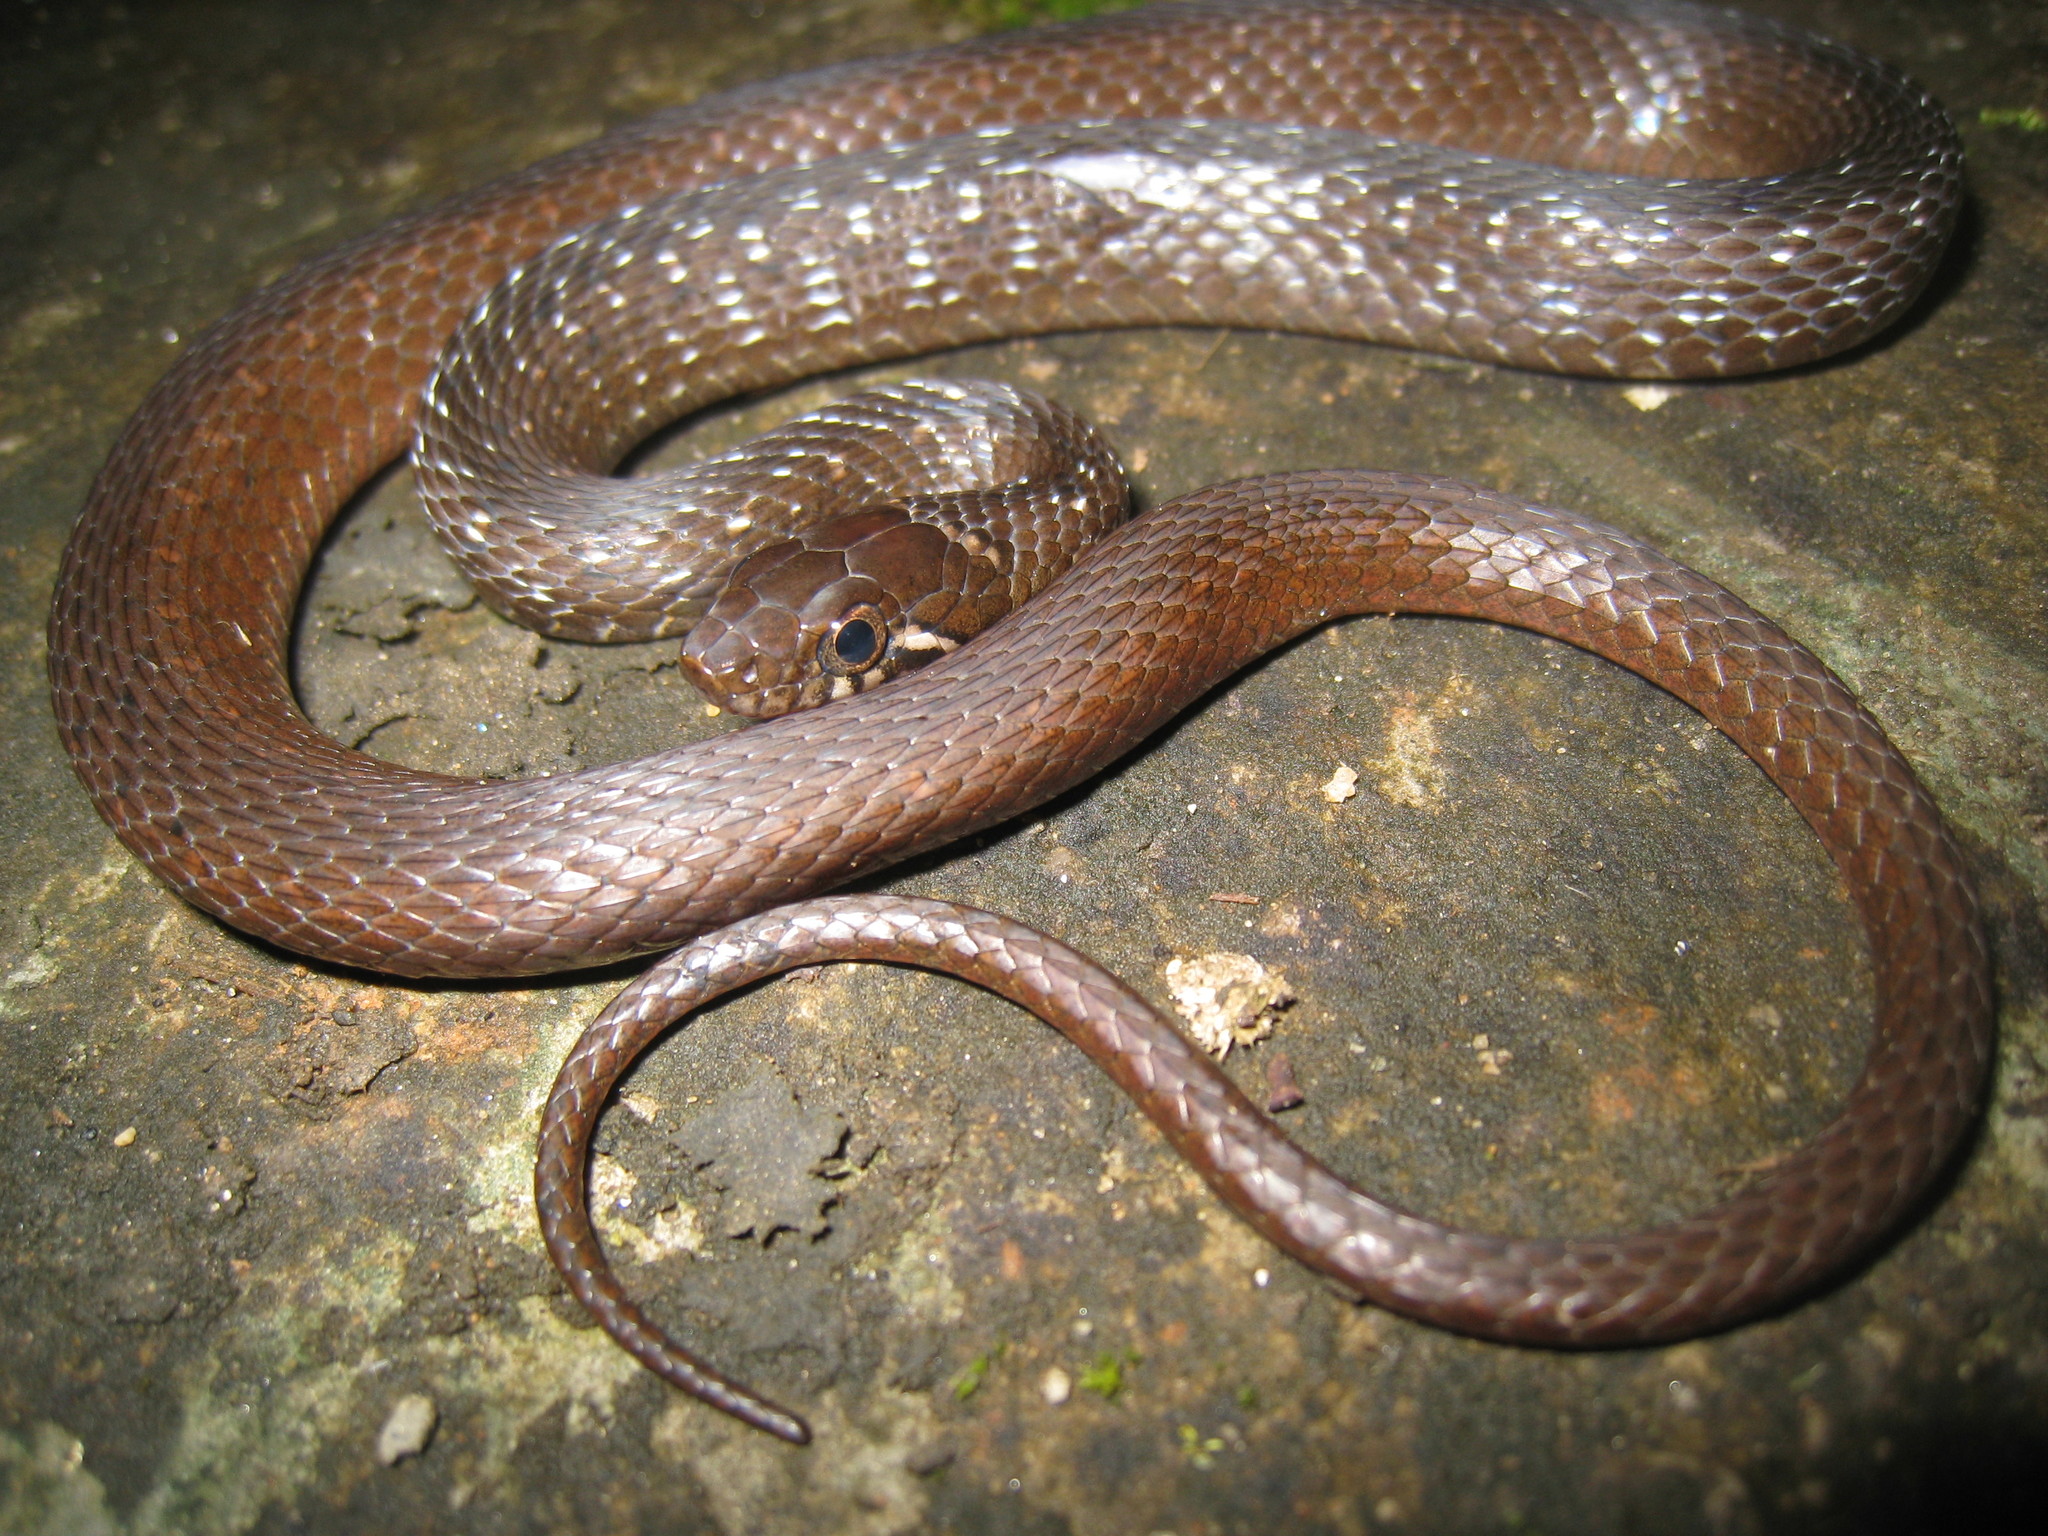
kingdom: Animalia
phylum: Chordata
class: Squamata
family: Colubridae
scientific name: Colubridae
